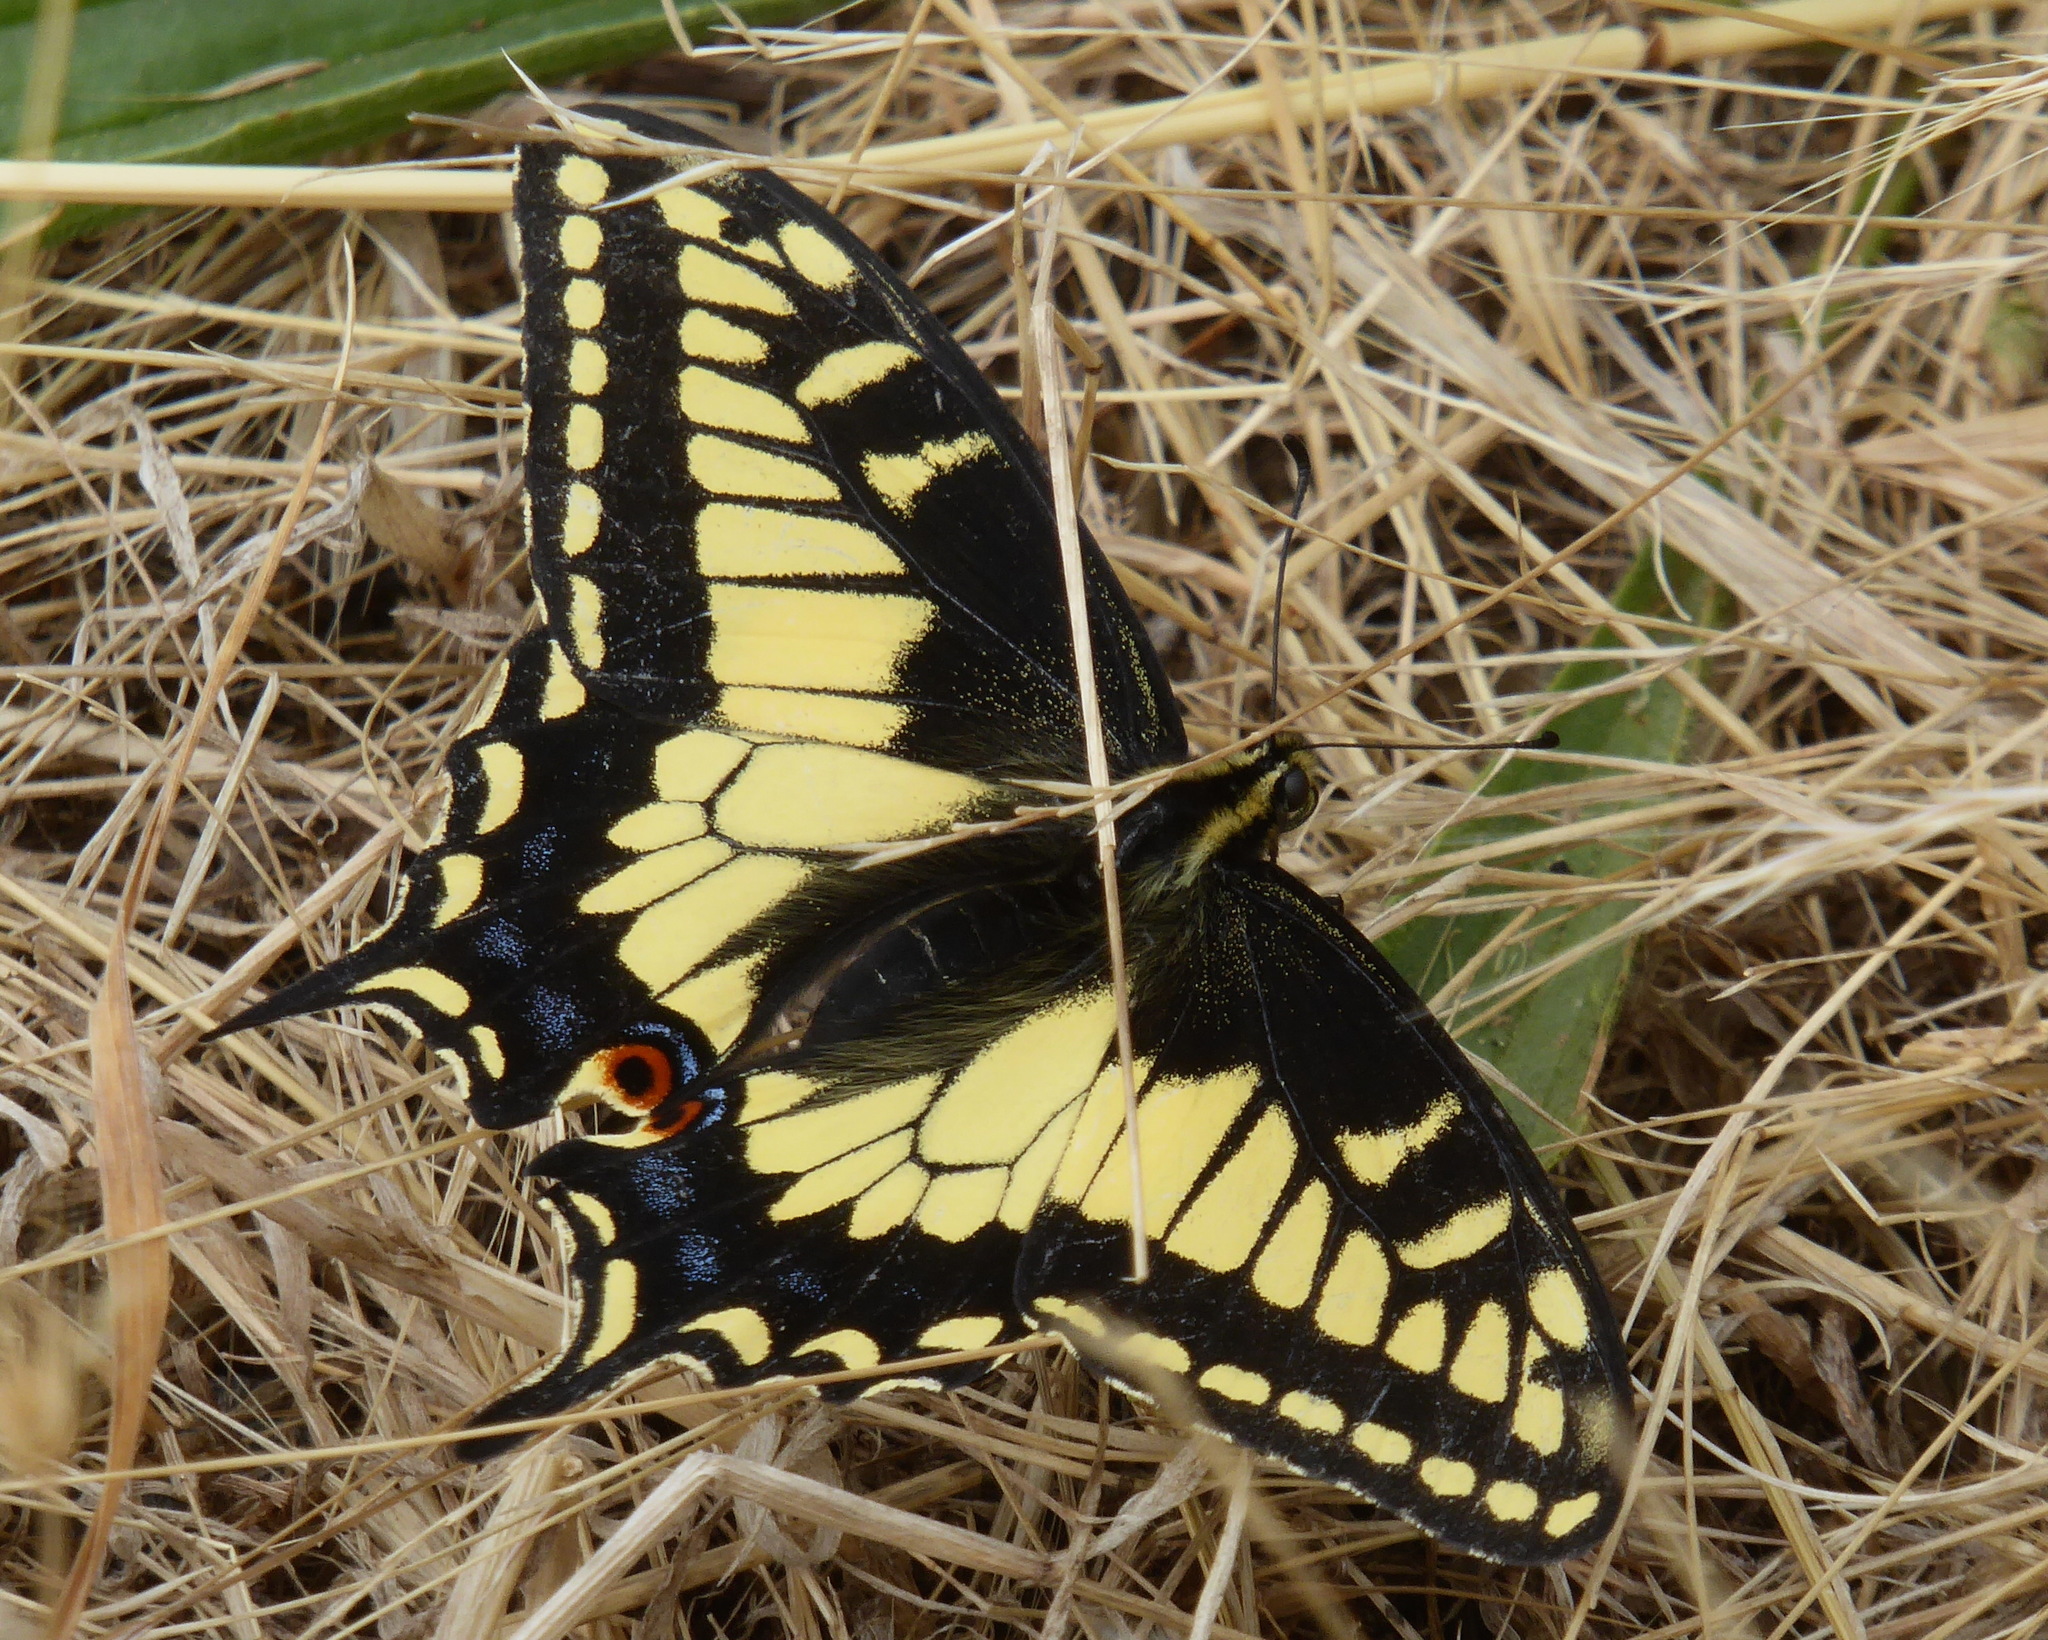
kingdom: Animalia
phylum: Arthropoda
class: Insecta
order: Lepidoptera
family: Papilionidae
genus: Papilio
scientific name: Papilio zelicaon
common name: Anise swallowtail
